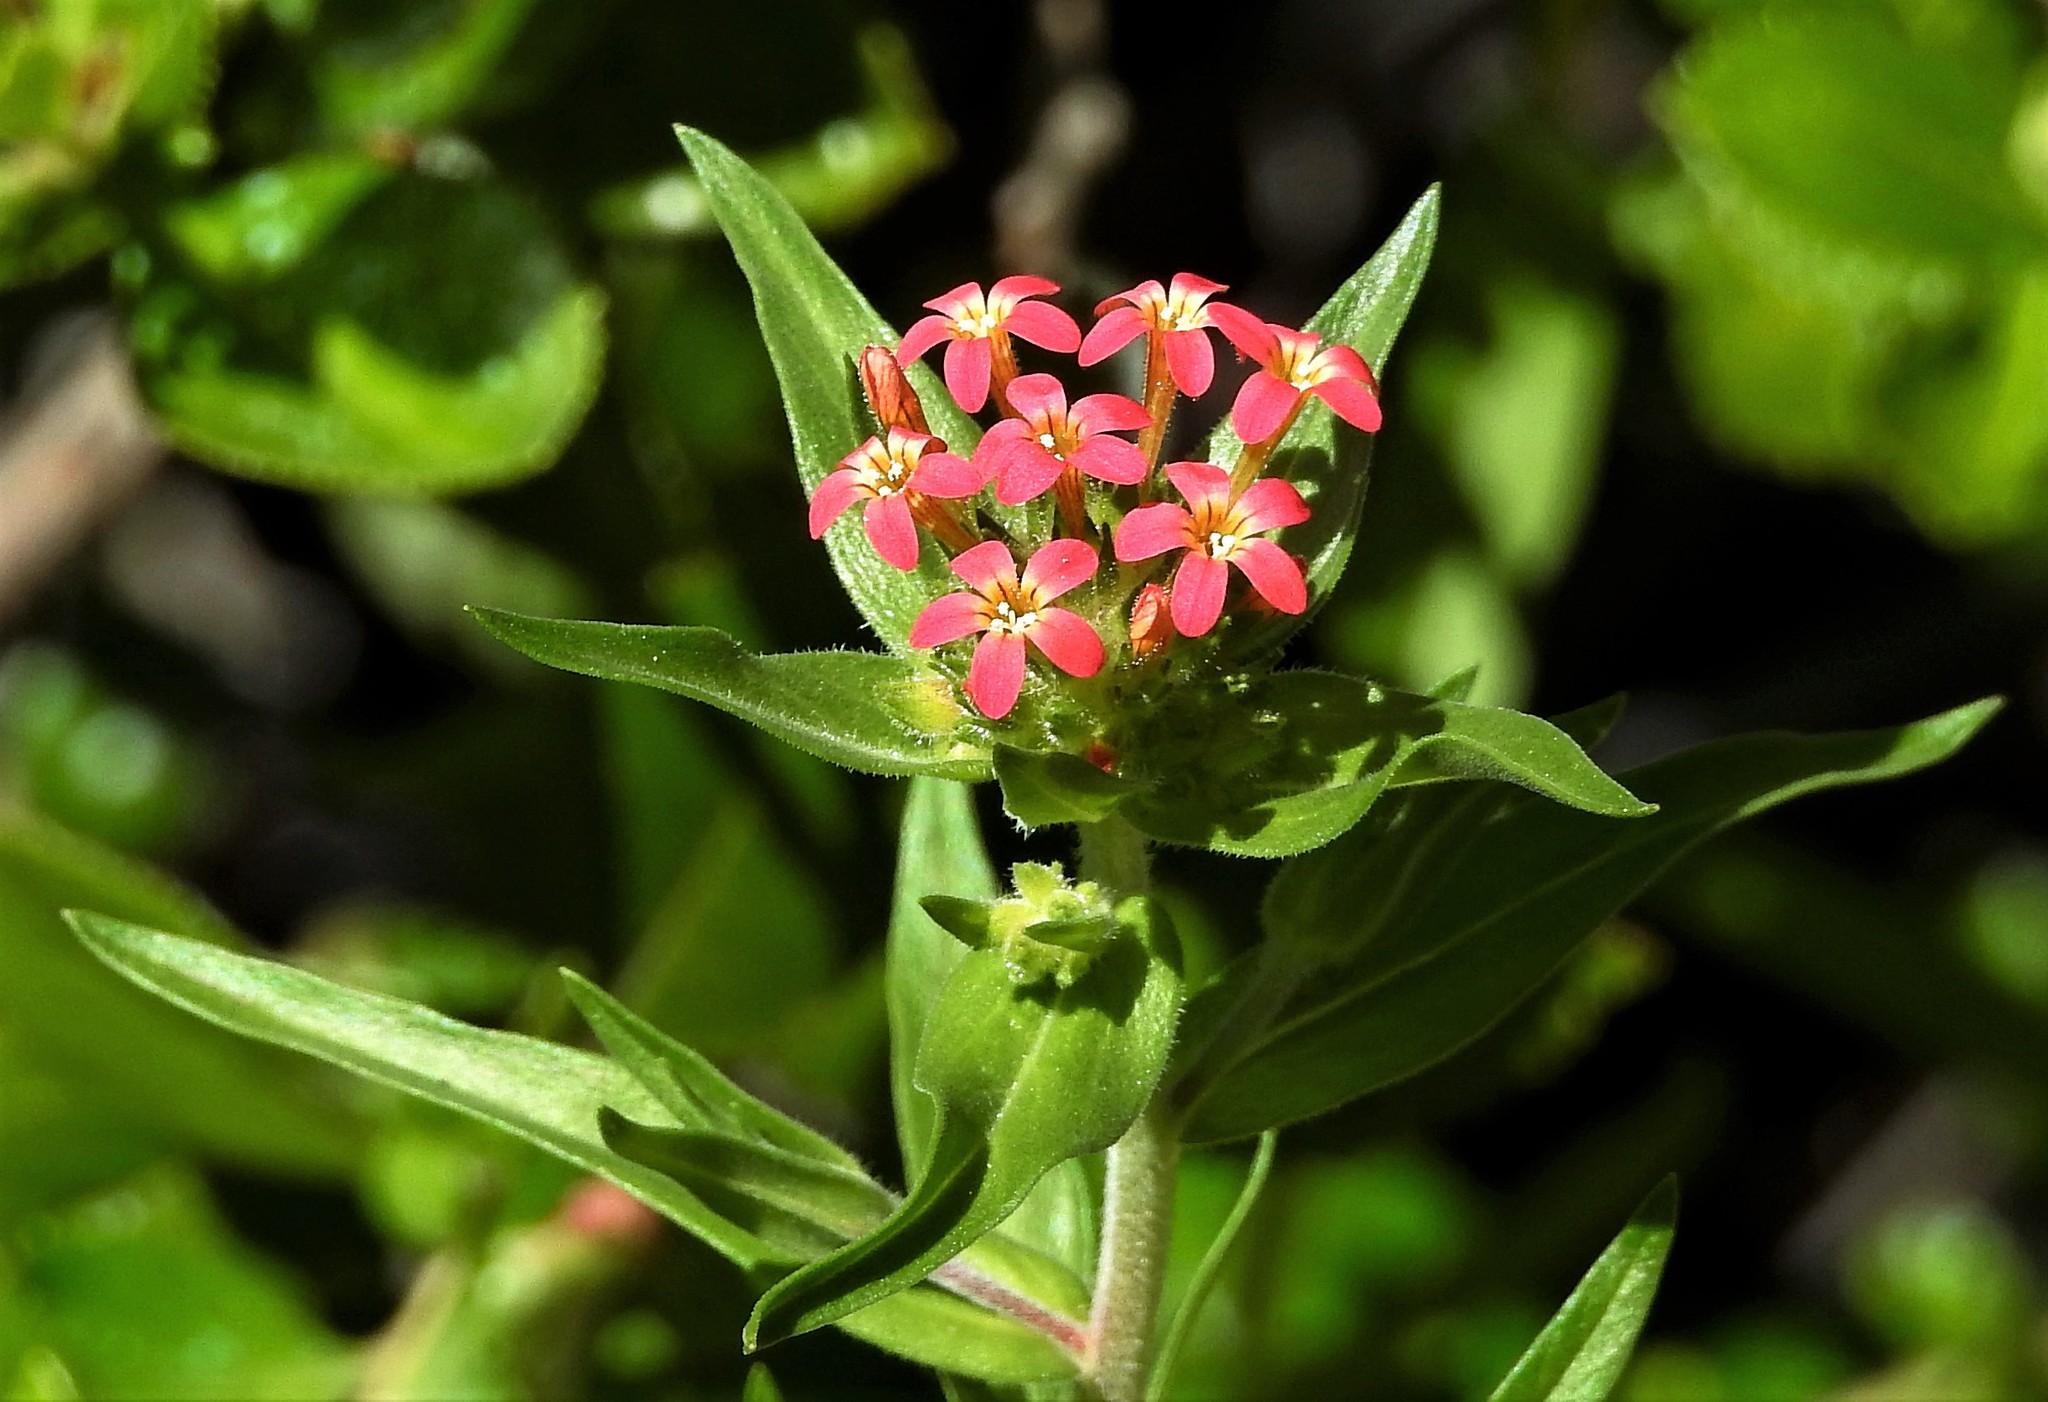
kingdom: Plantae
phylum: Tracheophyta
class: Magnoliopsida
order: Ericales
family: Polemoniaceae
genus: Collomia
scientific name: Collomia biflora
